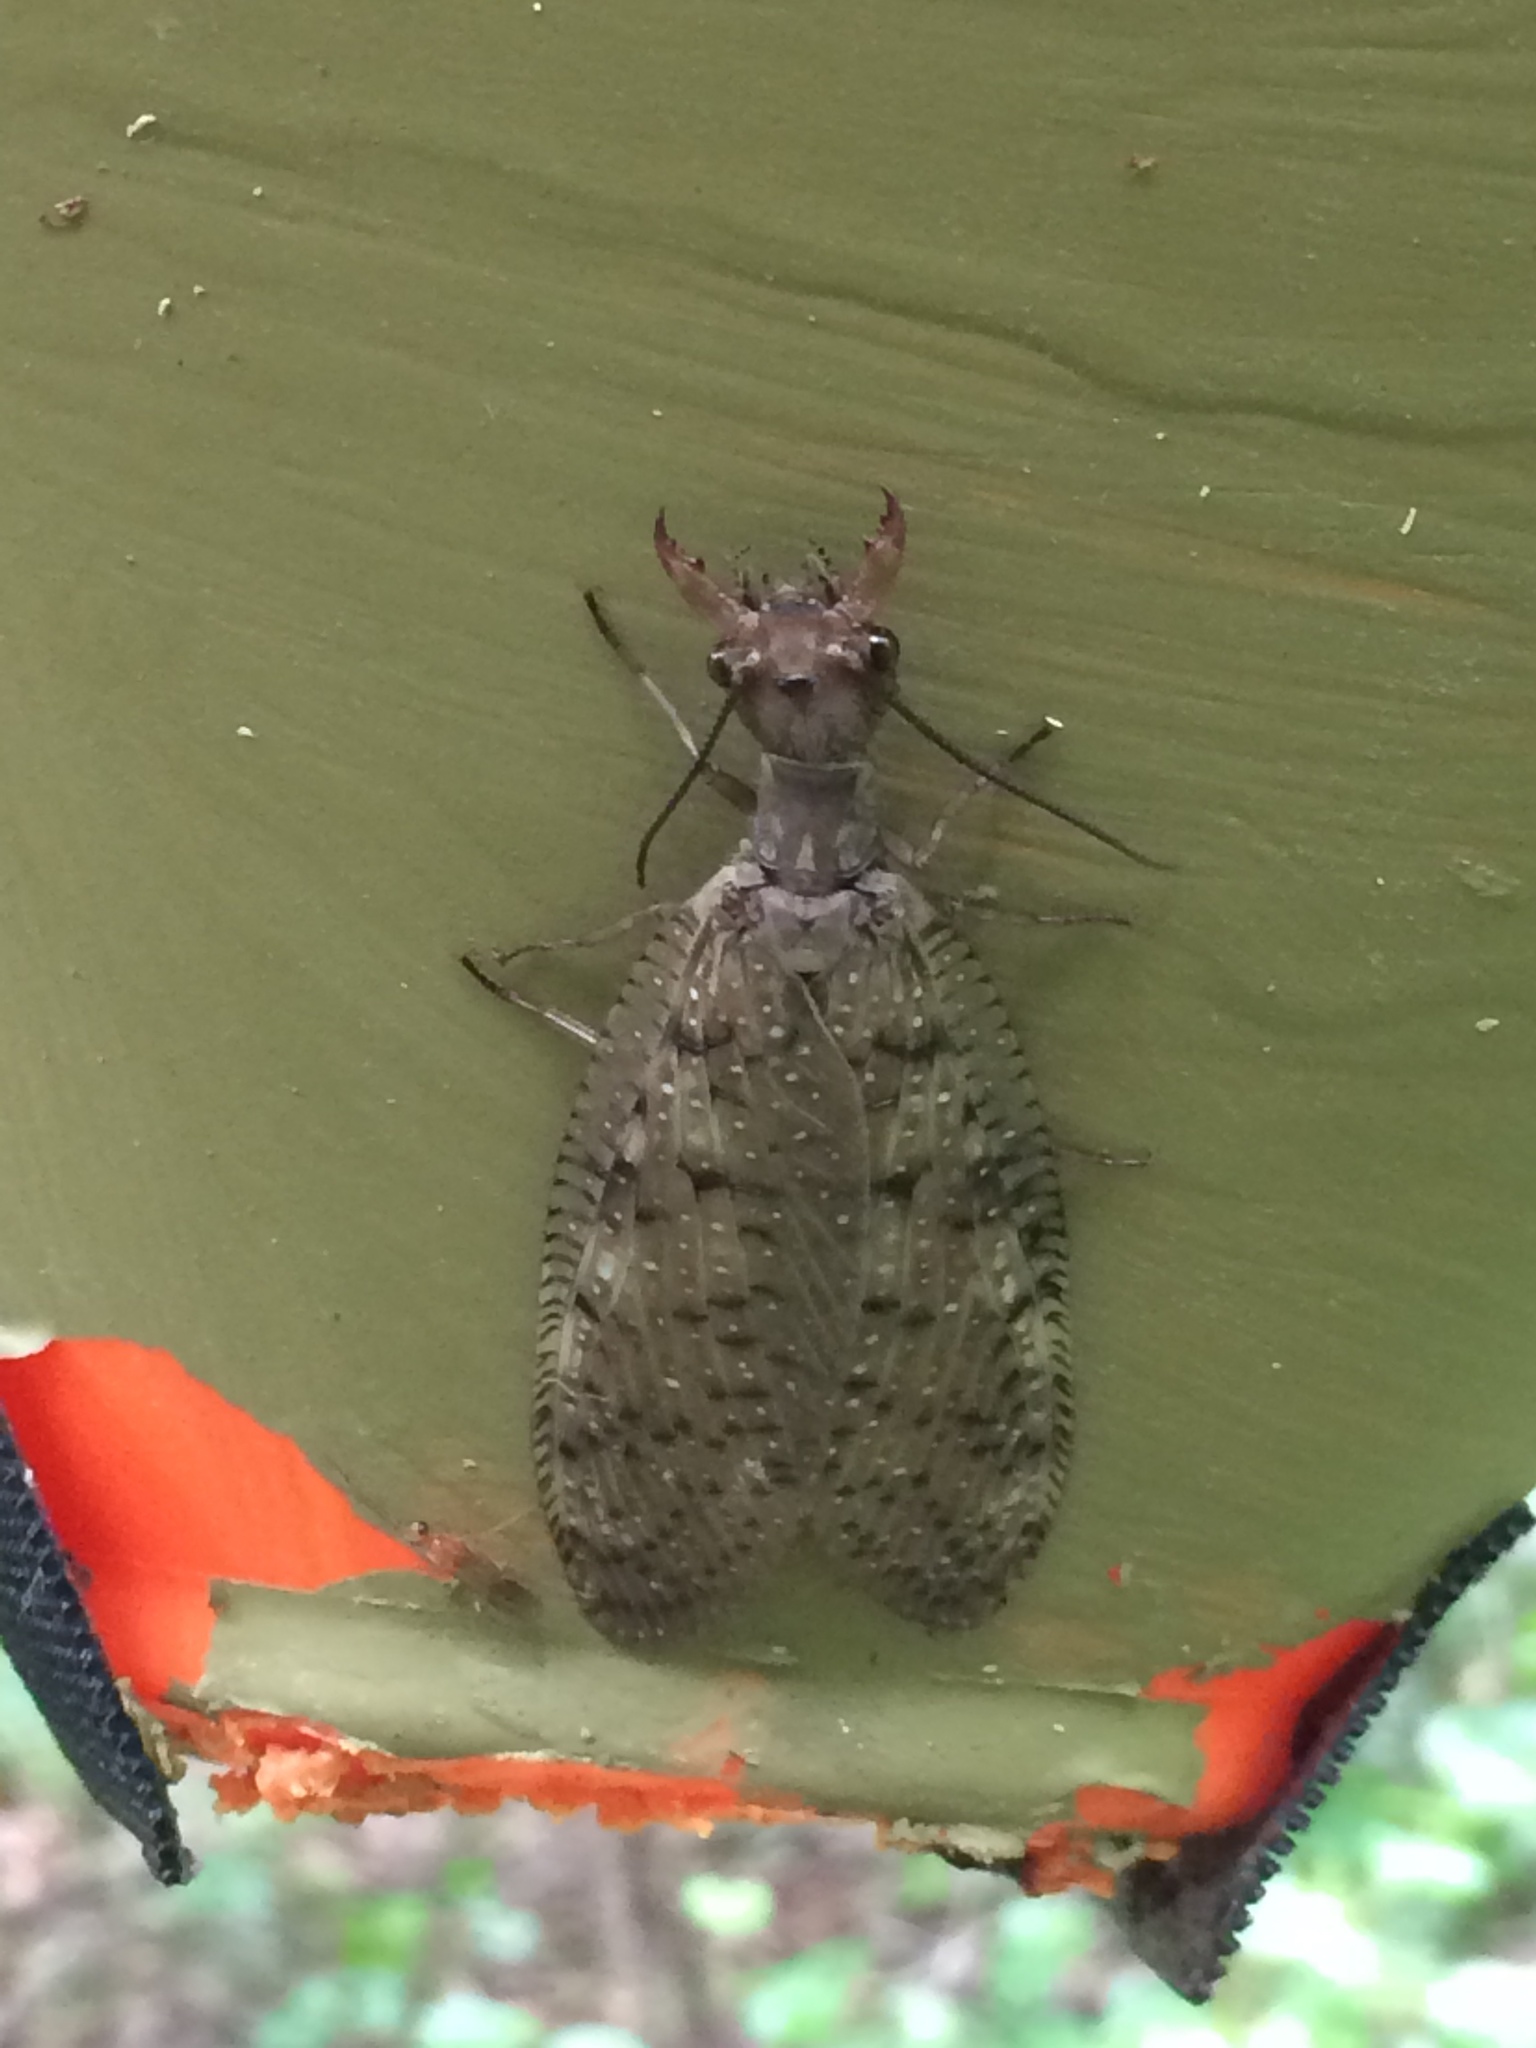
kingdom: Animalia
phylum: Arthropoda
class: Insecta
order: Megaloptera
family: Corydalidae
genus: Corydalus
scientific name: Corydalus cornutus
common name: Dobsonfly
